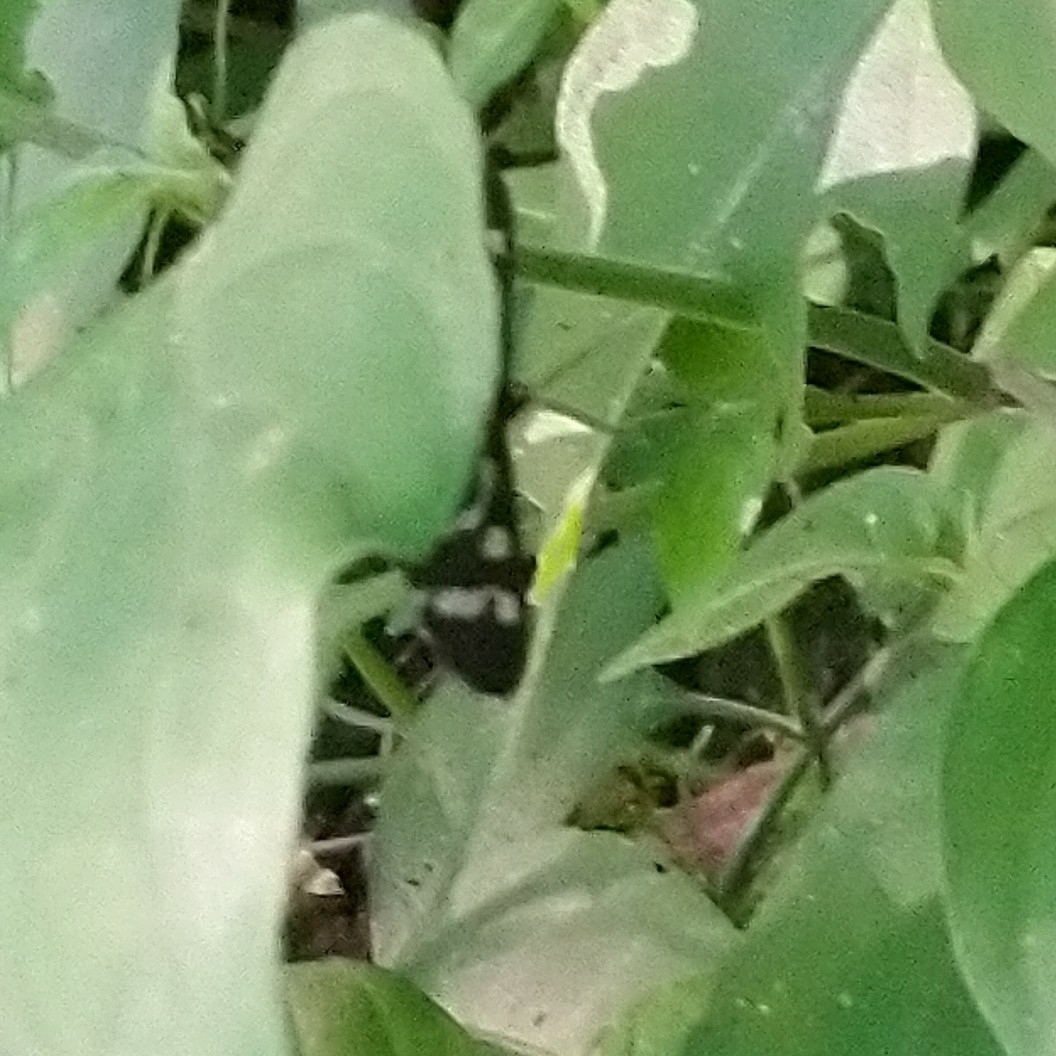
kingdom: Animalia
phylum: Arthropoda
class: Insecta
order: Lepidoptera
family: Erebidae
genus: Ceryx
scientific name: Ceryx toxotes
